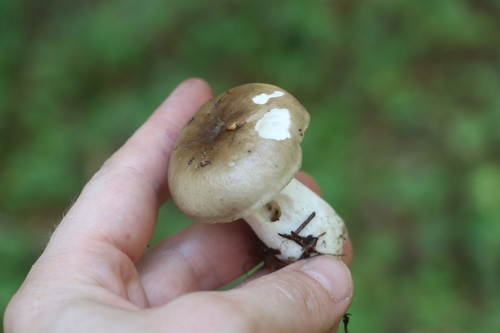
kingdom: Fungi
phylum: Basidiomycota
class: Agaricomycetes
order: Russulales
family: Russulaceae
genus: Russula
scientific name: Russula consobrina
